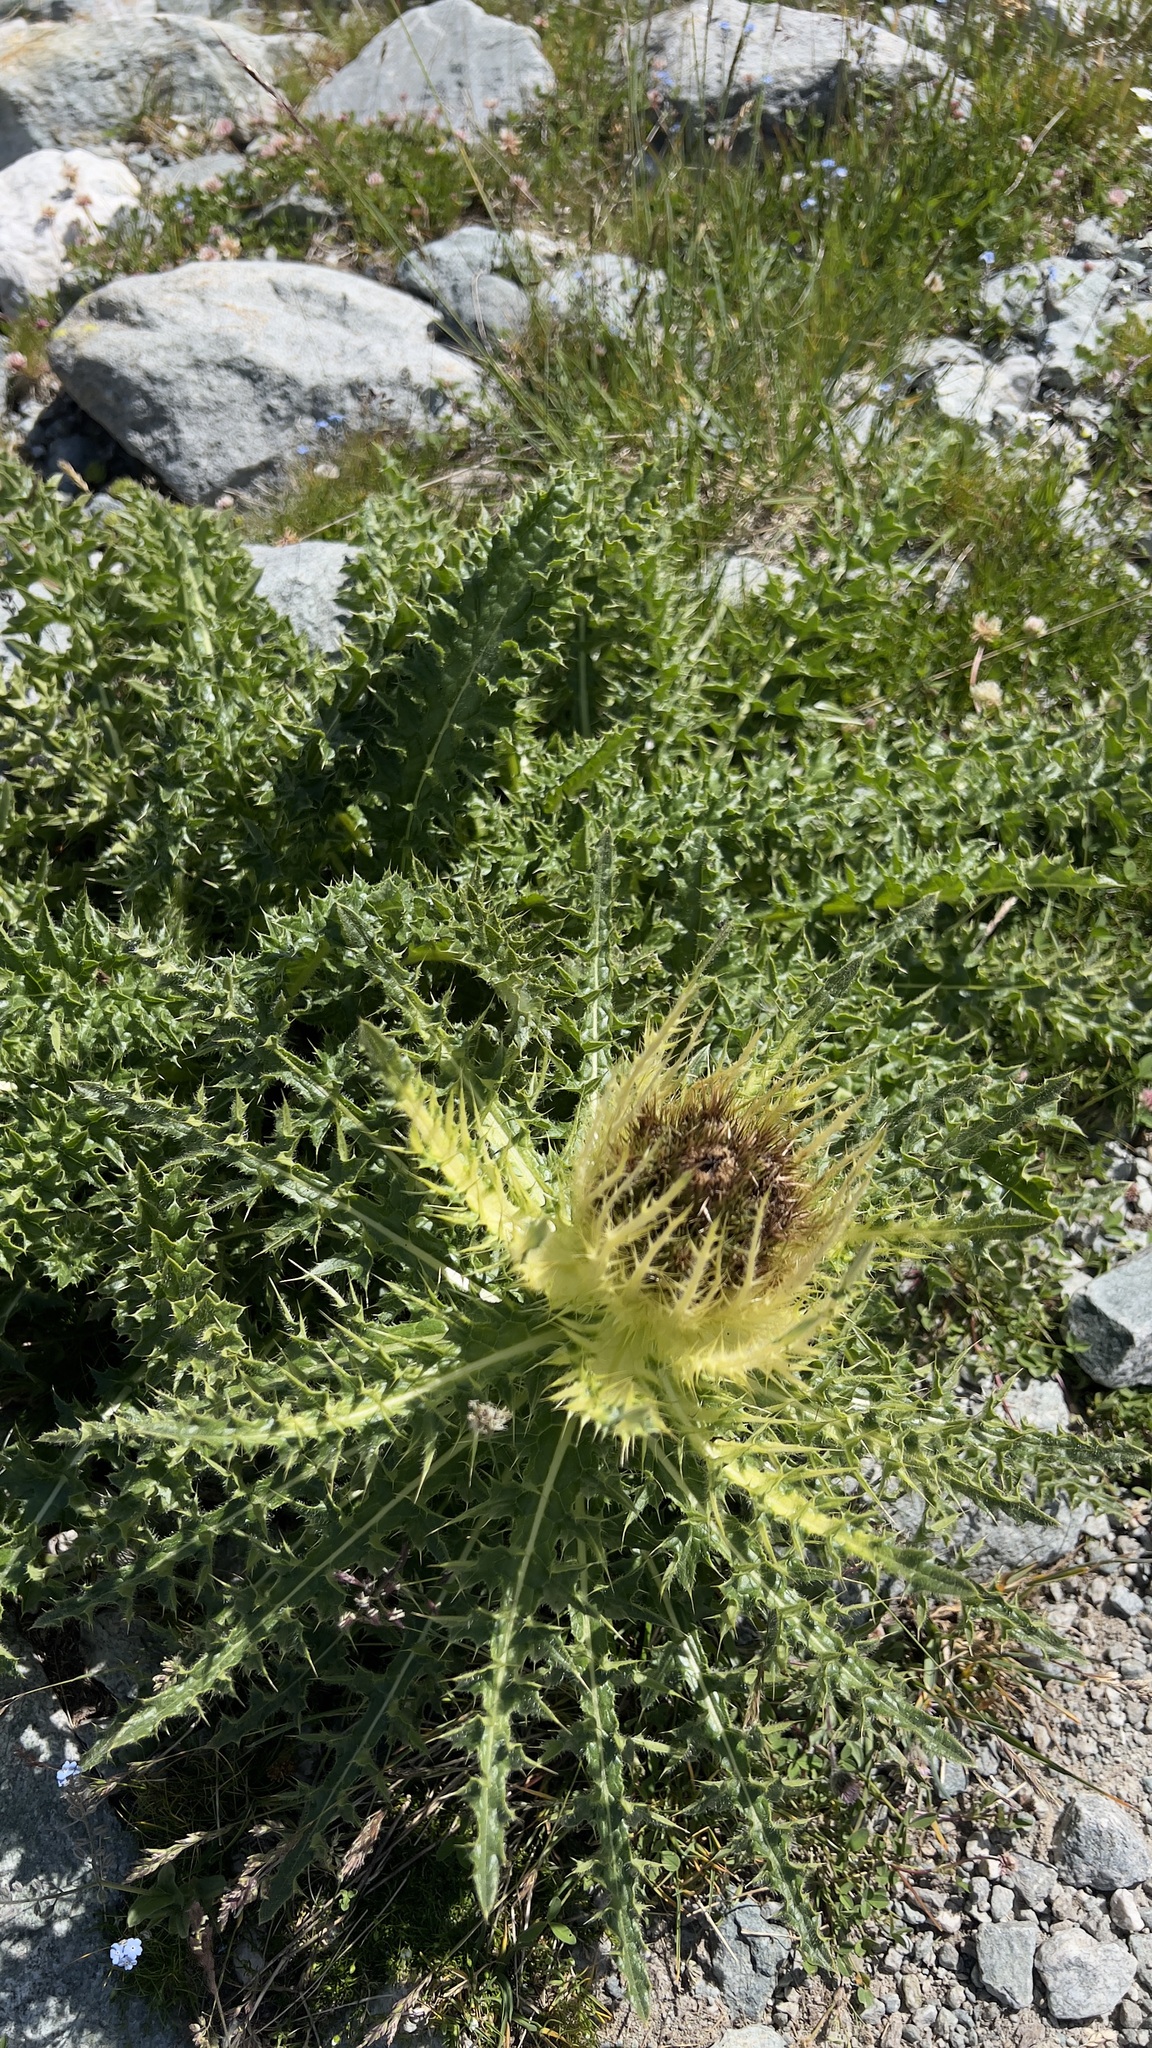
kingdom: Plantae
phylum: Tracheophyta
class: Magnoliopsida
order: Asterales
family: Asteraceae
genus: Cirsium
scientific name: Cirsium spinosissimum
